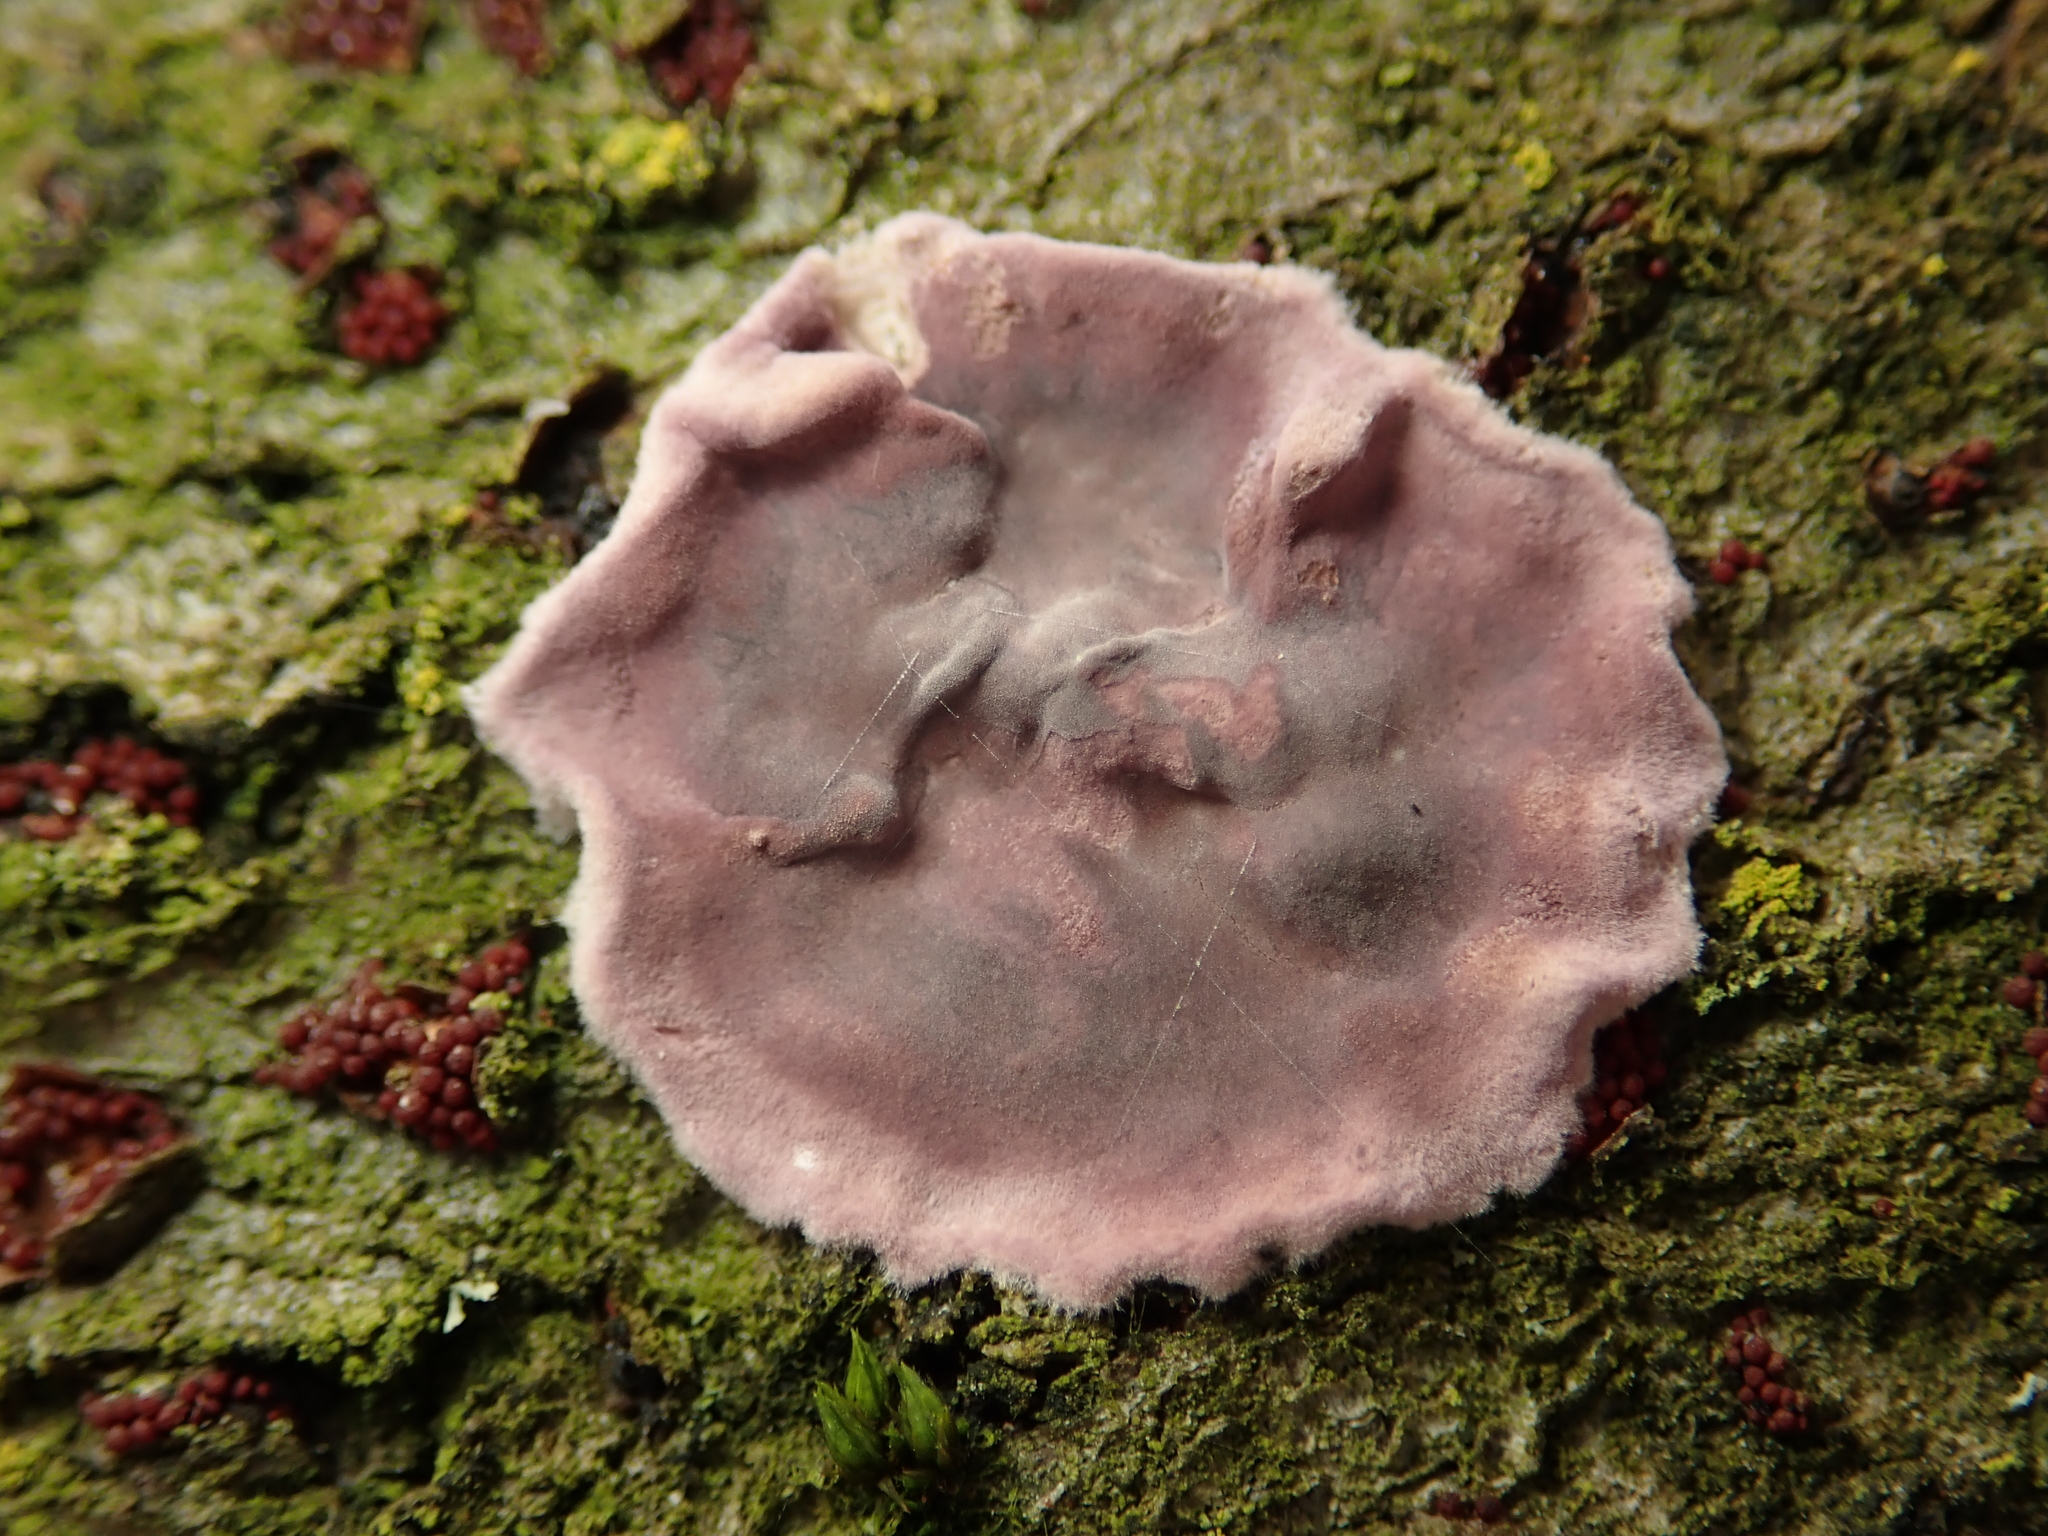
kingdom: Fungi
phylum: Basidiomycota
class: Agaricomycetes
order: Agaricales
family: Cyphellaceae
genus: Chondrostereum
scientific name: Chondrostereum purpureum
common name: Silver leaf disease
